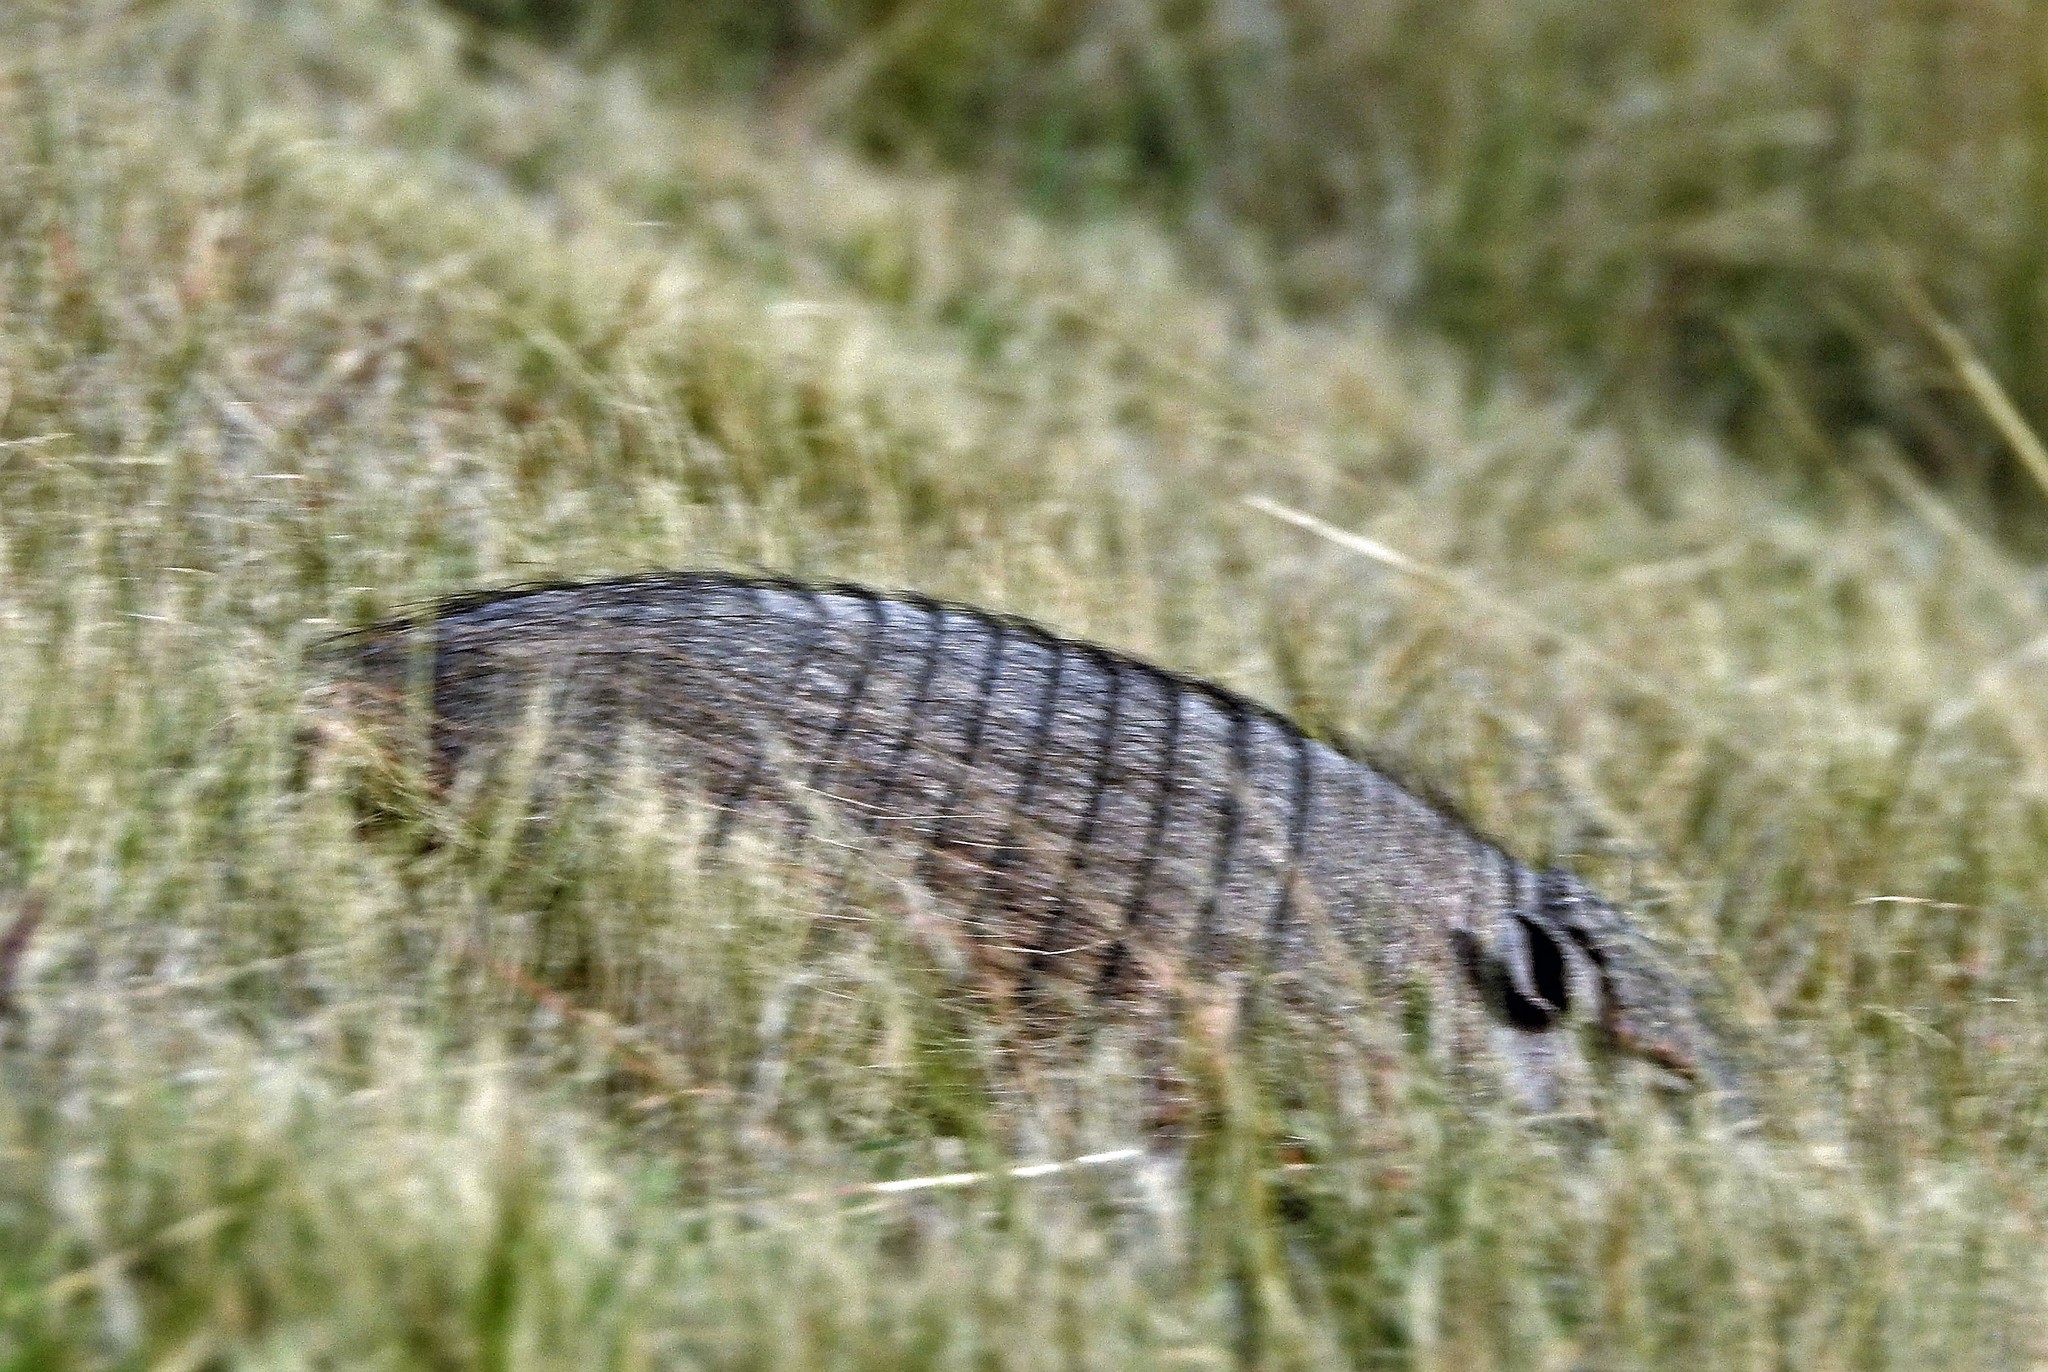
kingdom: Animalia
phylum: Chordata
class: Mammalia
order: Cingulata
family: Dasypodidae
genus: Chaetophractus
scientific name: Chaetophractus villosus
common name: Big hairy armadillo
